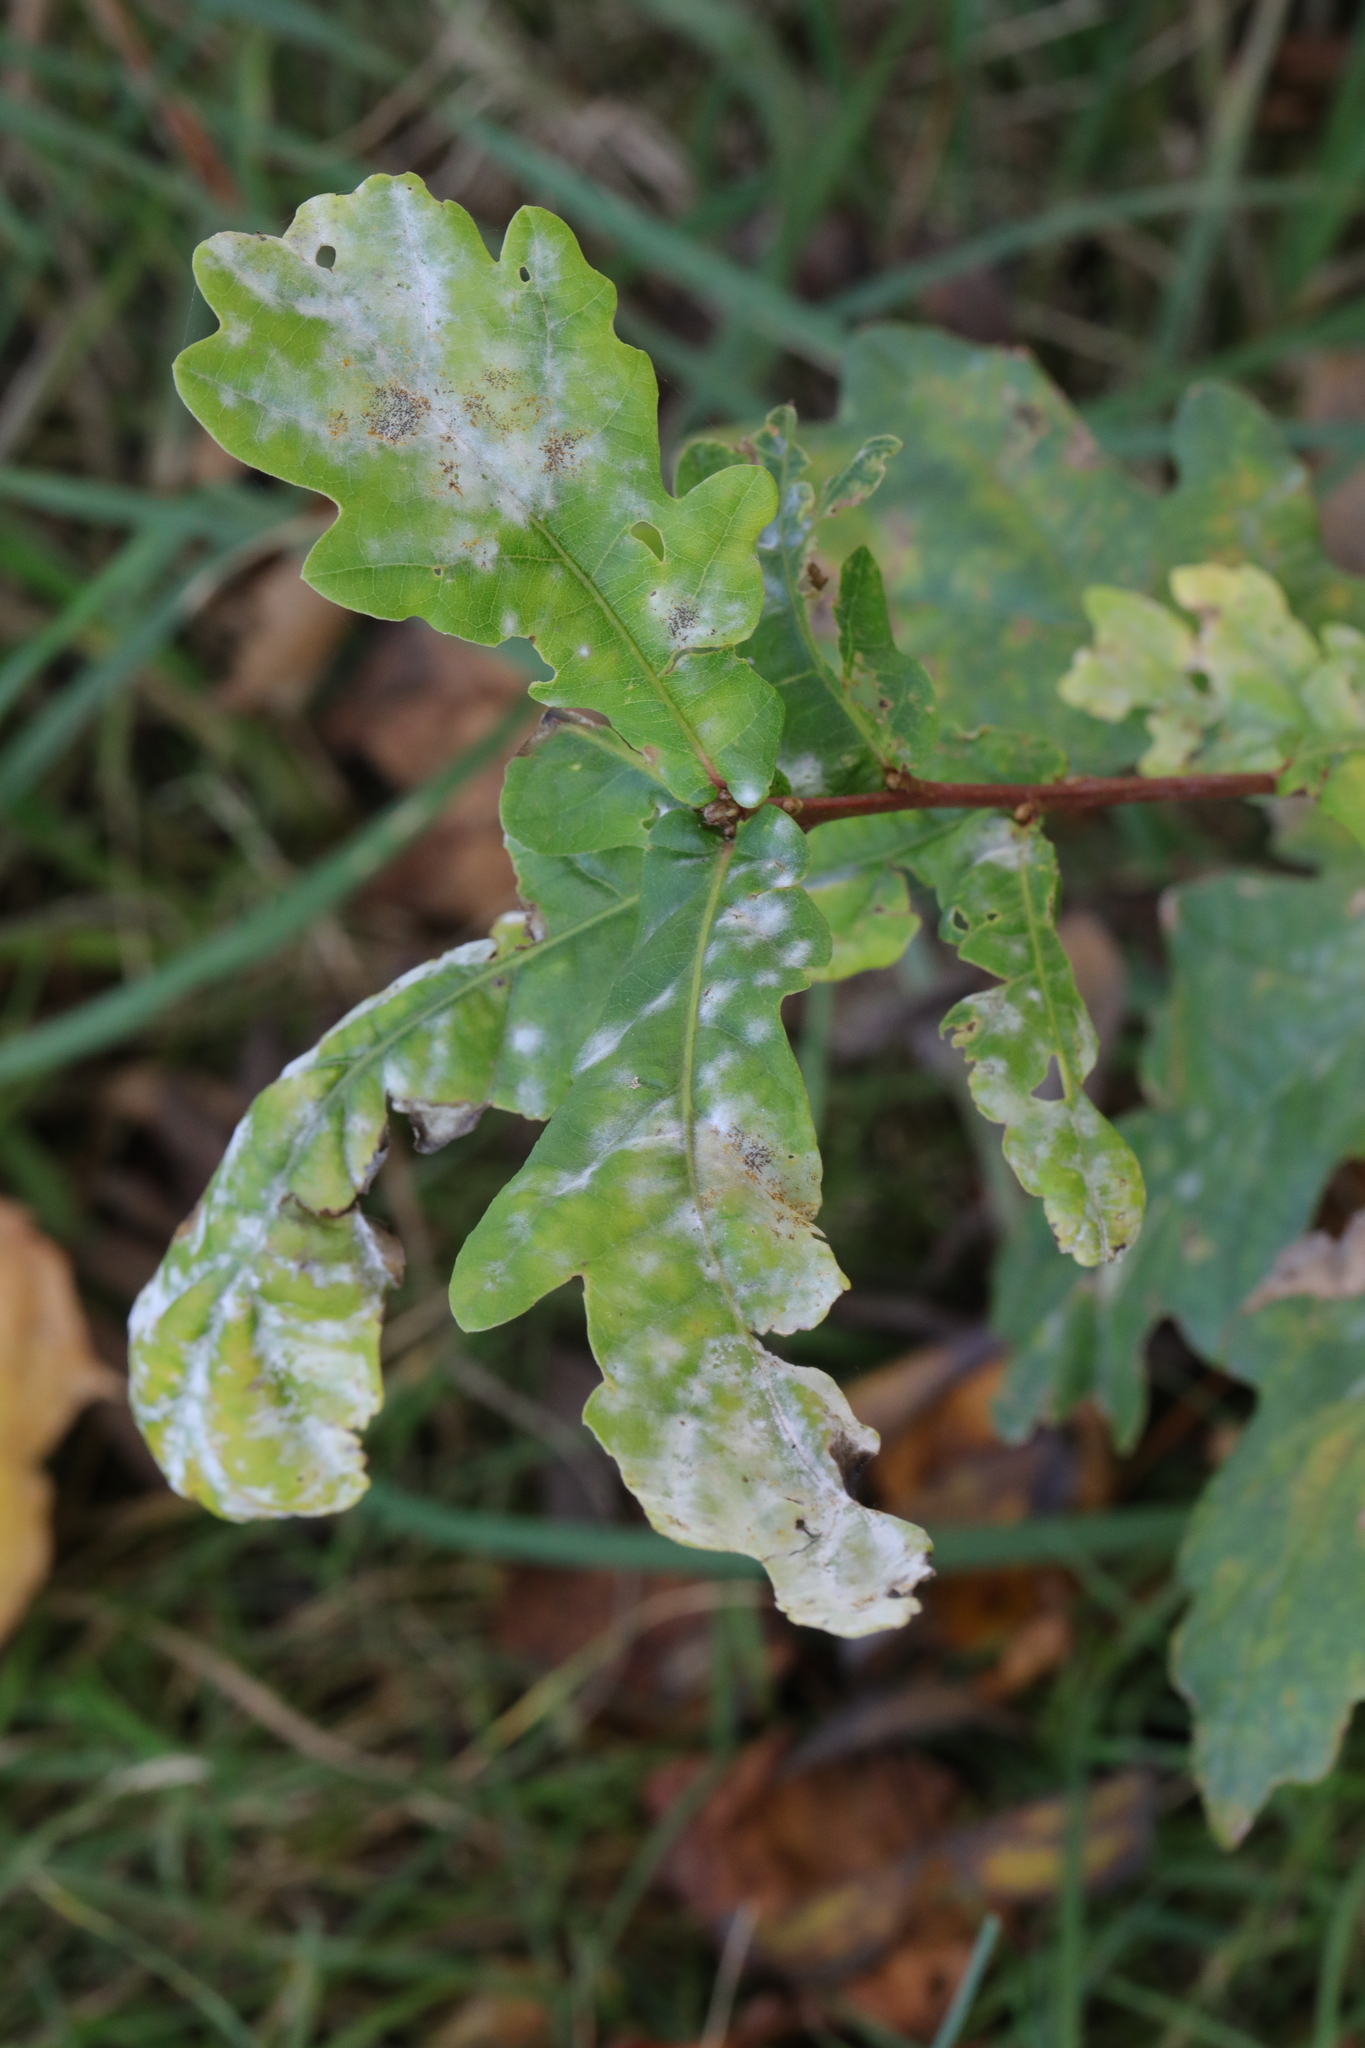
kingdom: Plantae
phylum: Tracheophyta
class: Magnoliopsida
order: Fagales
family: Fagaceae
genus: Quercus
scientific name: Quercus robur
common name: Pedunculate oak
